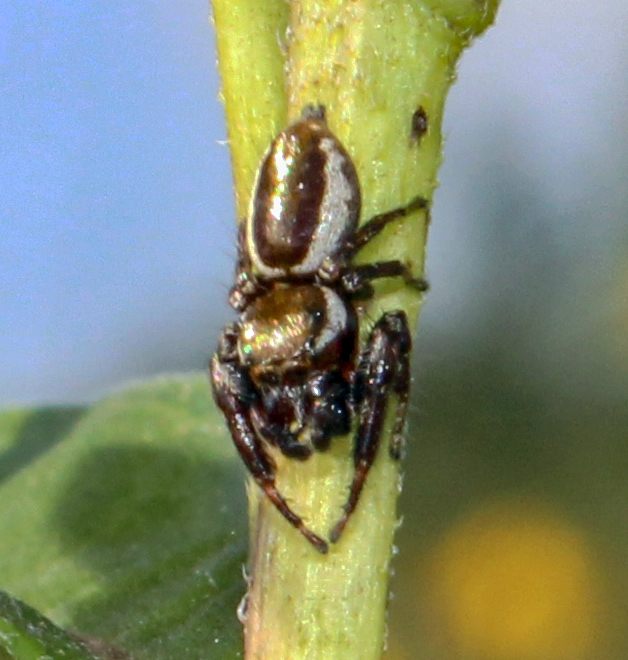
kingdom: Animalia
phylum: Arthropoda
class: Arachnida
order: Araneae
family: Salticidae
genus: Eris
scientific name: Eris militaris
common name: Bronze jumper
